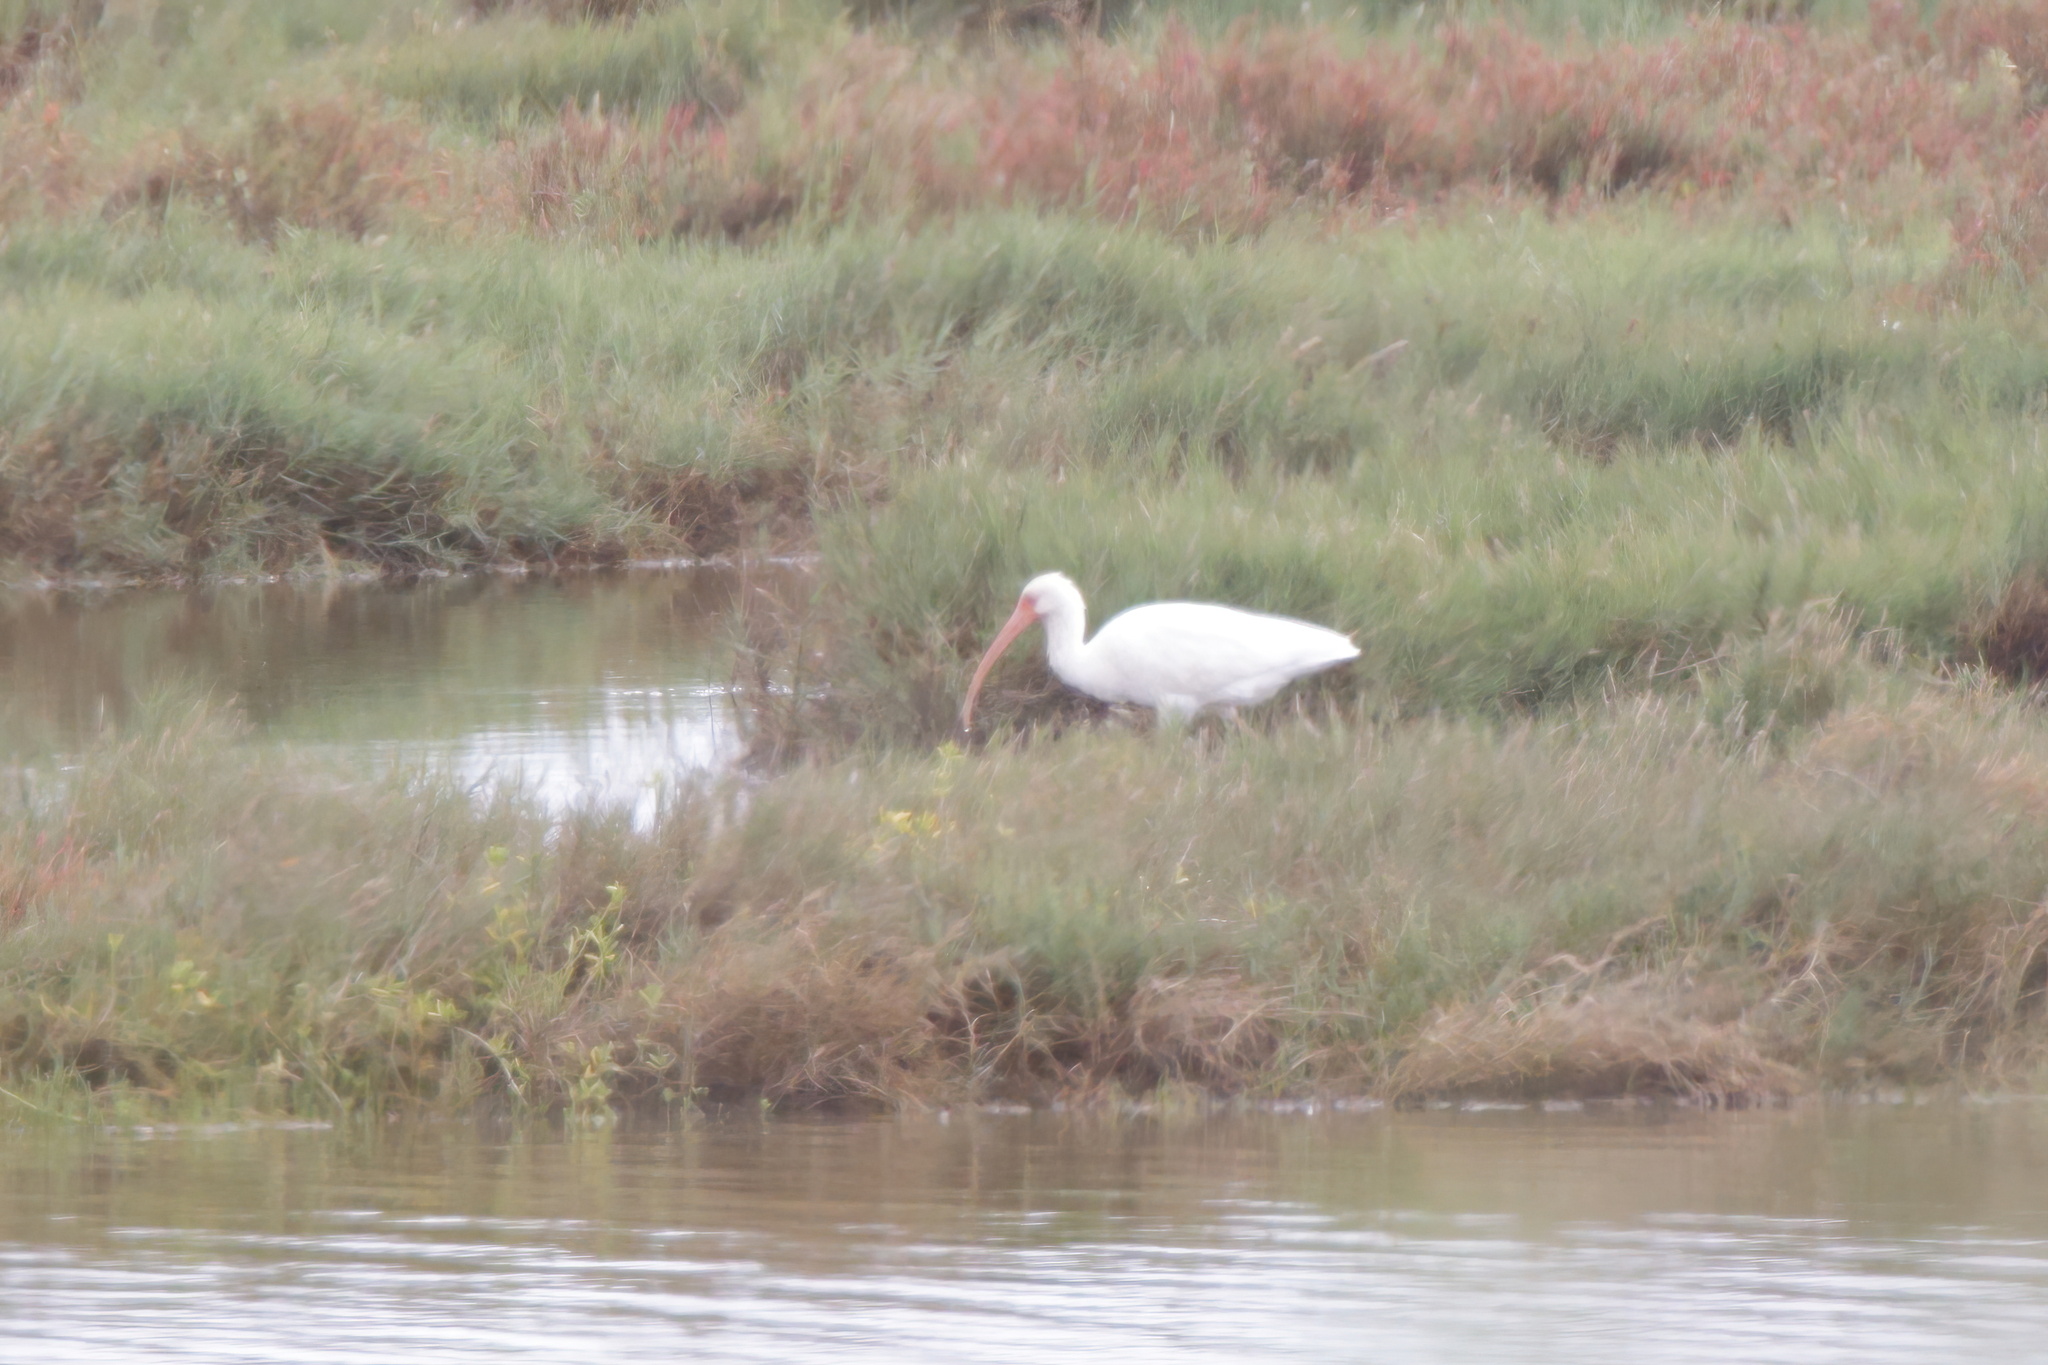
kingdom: Animalia
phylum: Chordata
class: Aves
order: Pelecaniformes
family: Threskiornithidae
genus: Eudocimus
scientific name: Eudocimus albus
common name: White ibis
